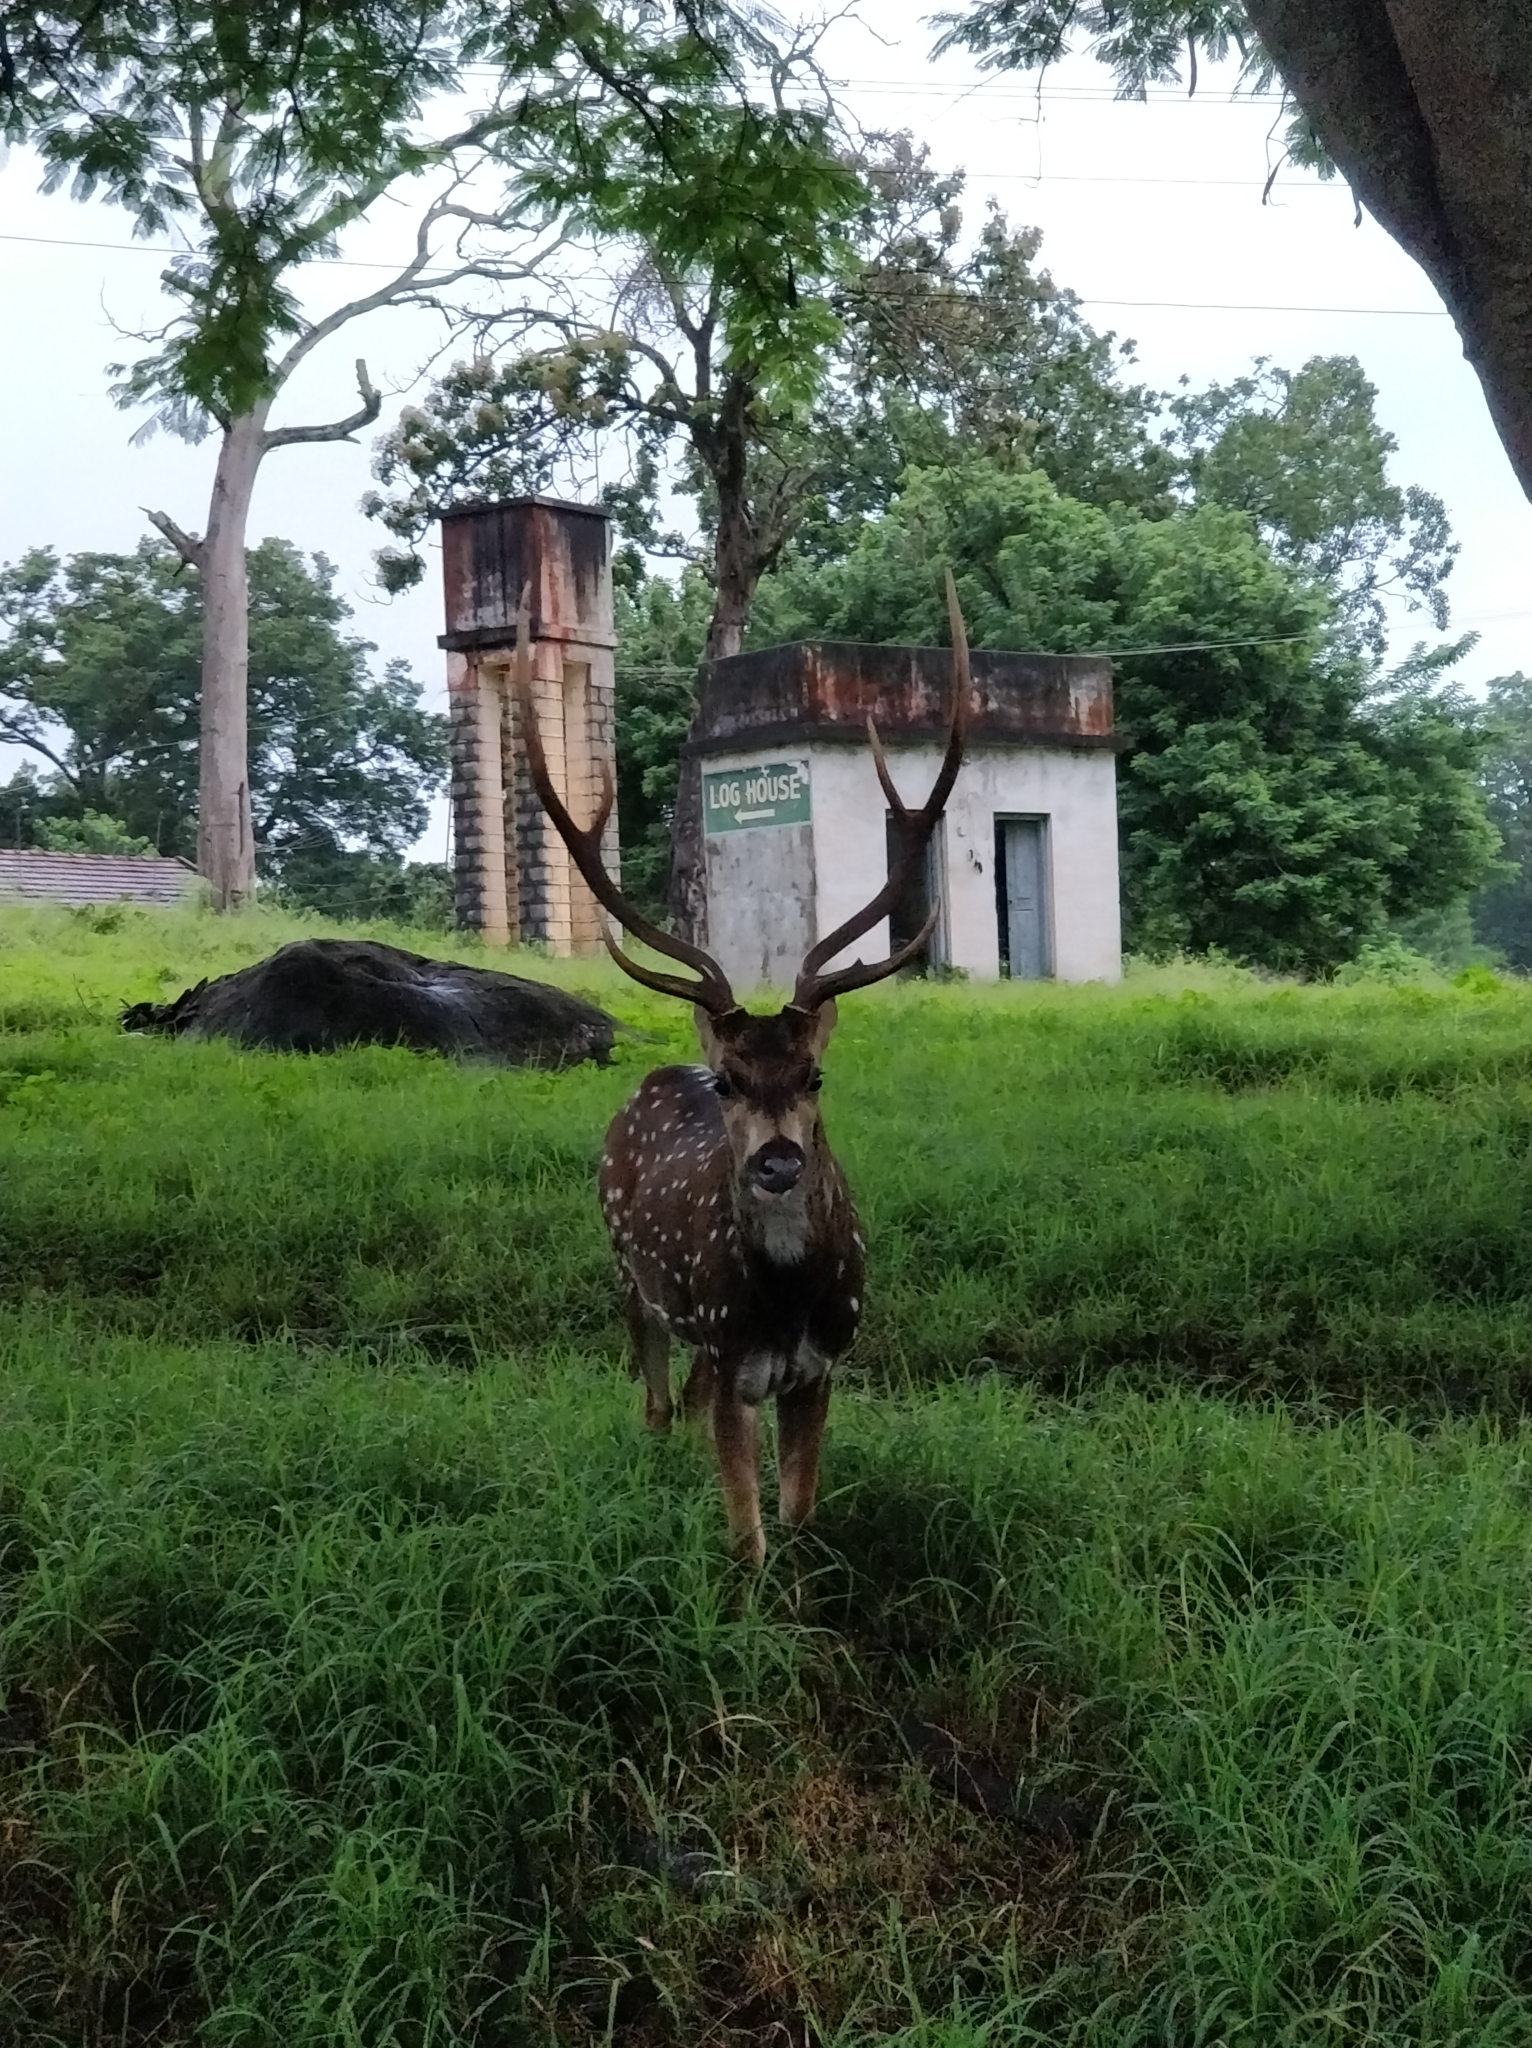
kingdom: Animalia
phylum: Chordata
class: Mammalia
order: Artiodactyla
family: Cervidae
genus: Axis
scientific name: Axis axis
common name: Chital
